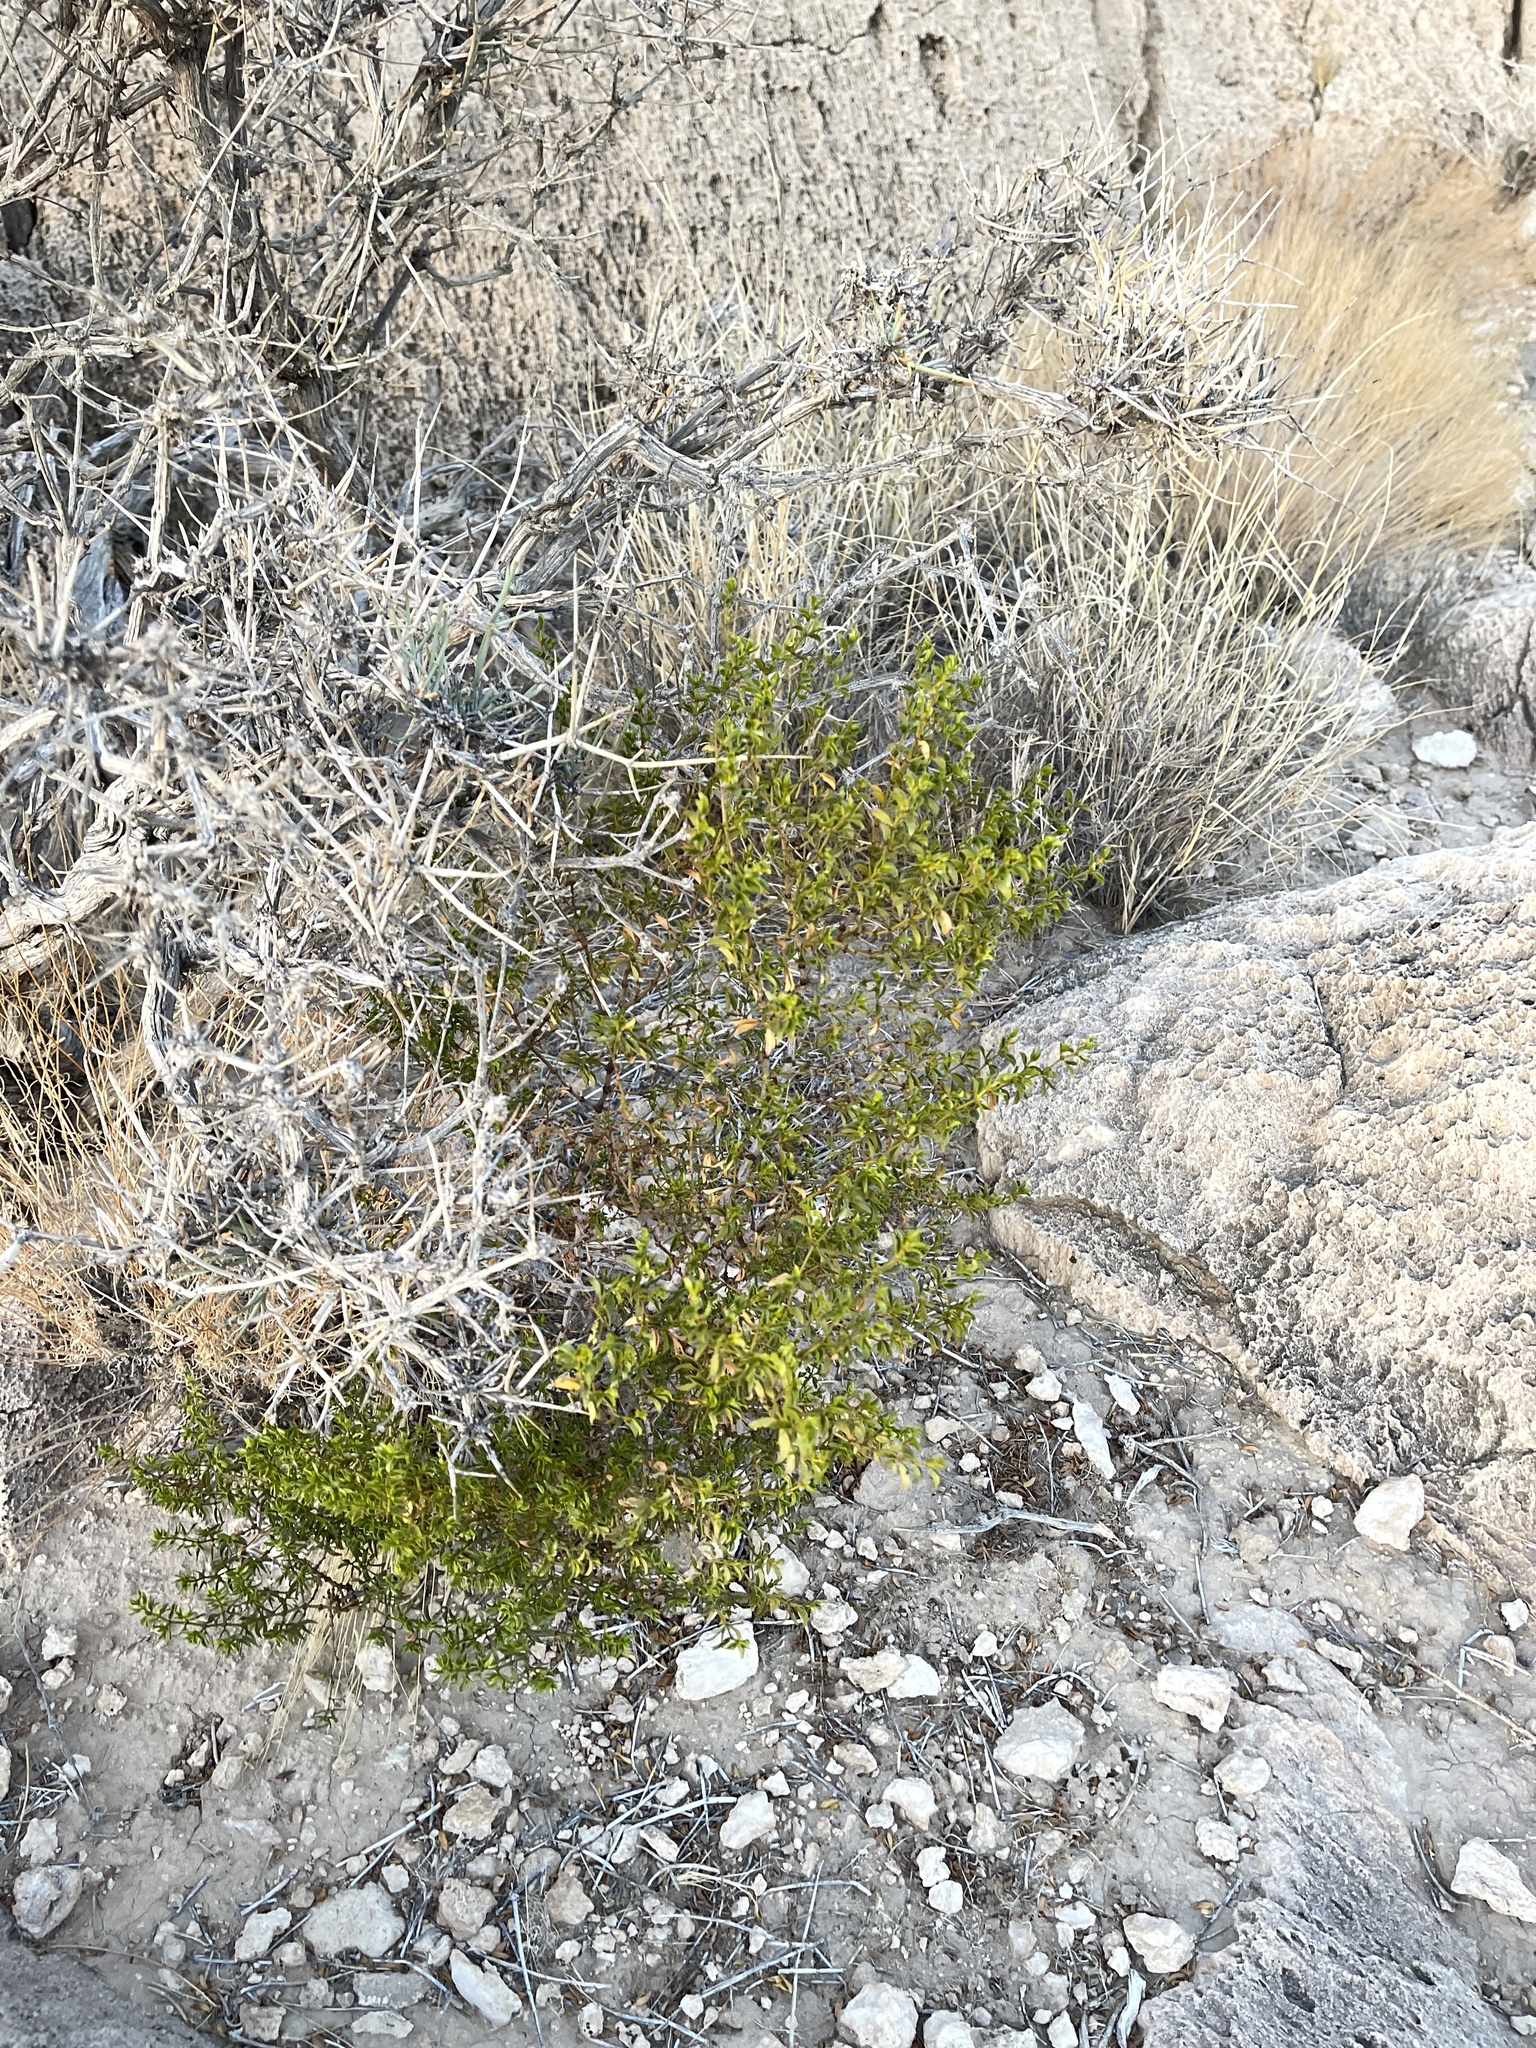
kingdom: Plantae
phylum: Tracheophyta
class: Magnoliopsida
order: Zygophyllales
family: Zygophyllaceae
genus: Larrea
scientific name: Larrea tridentata
